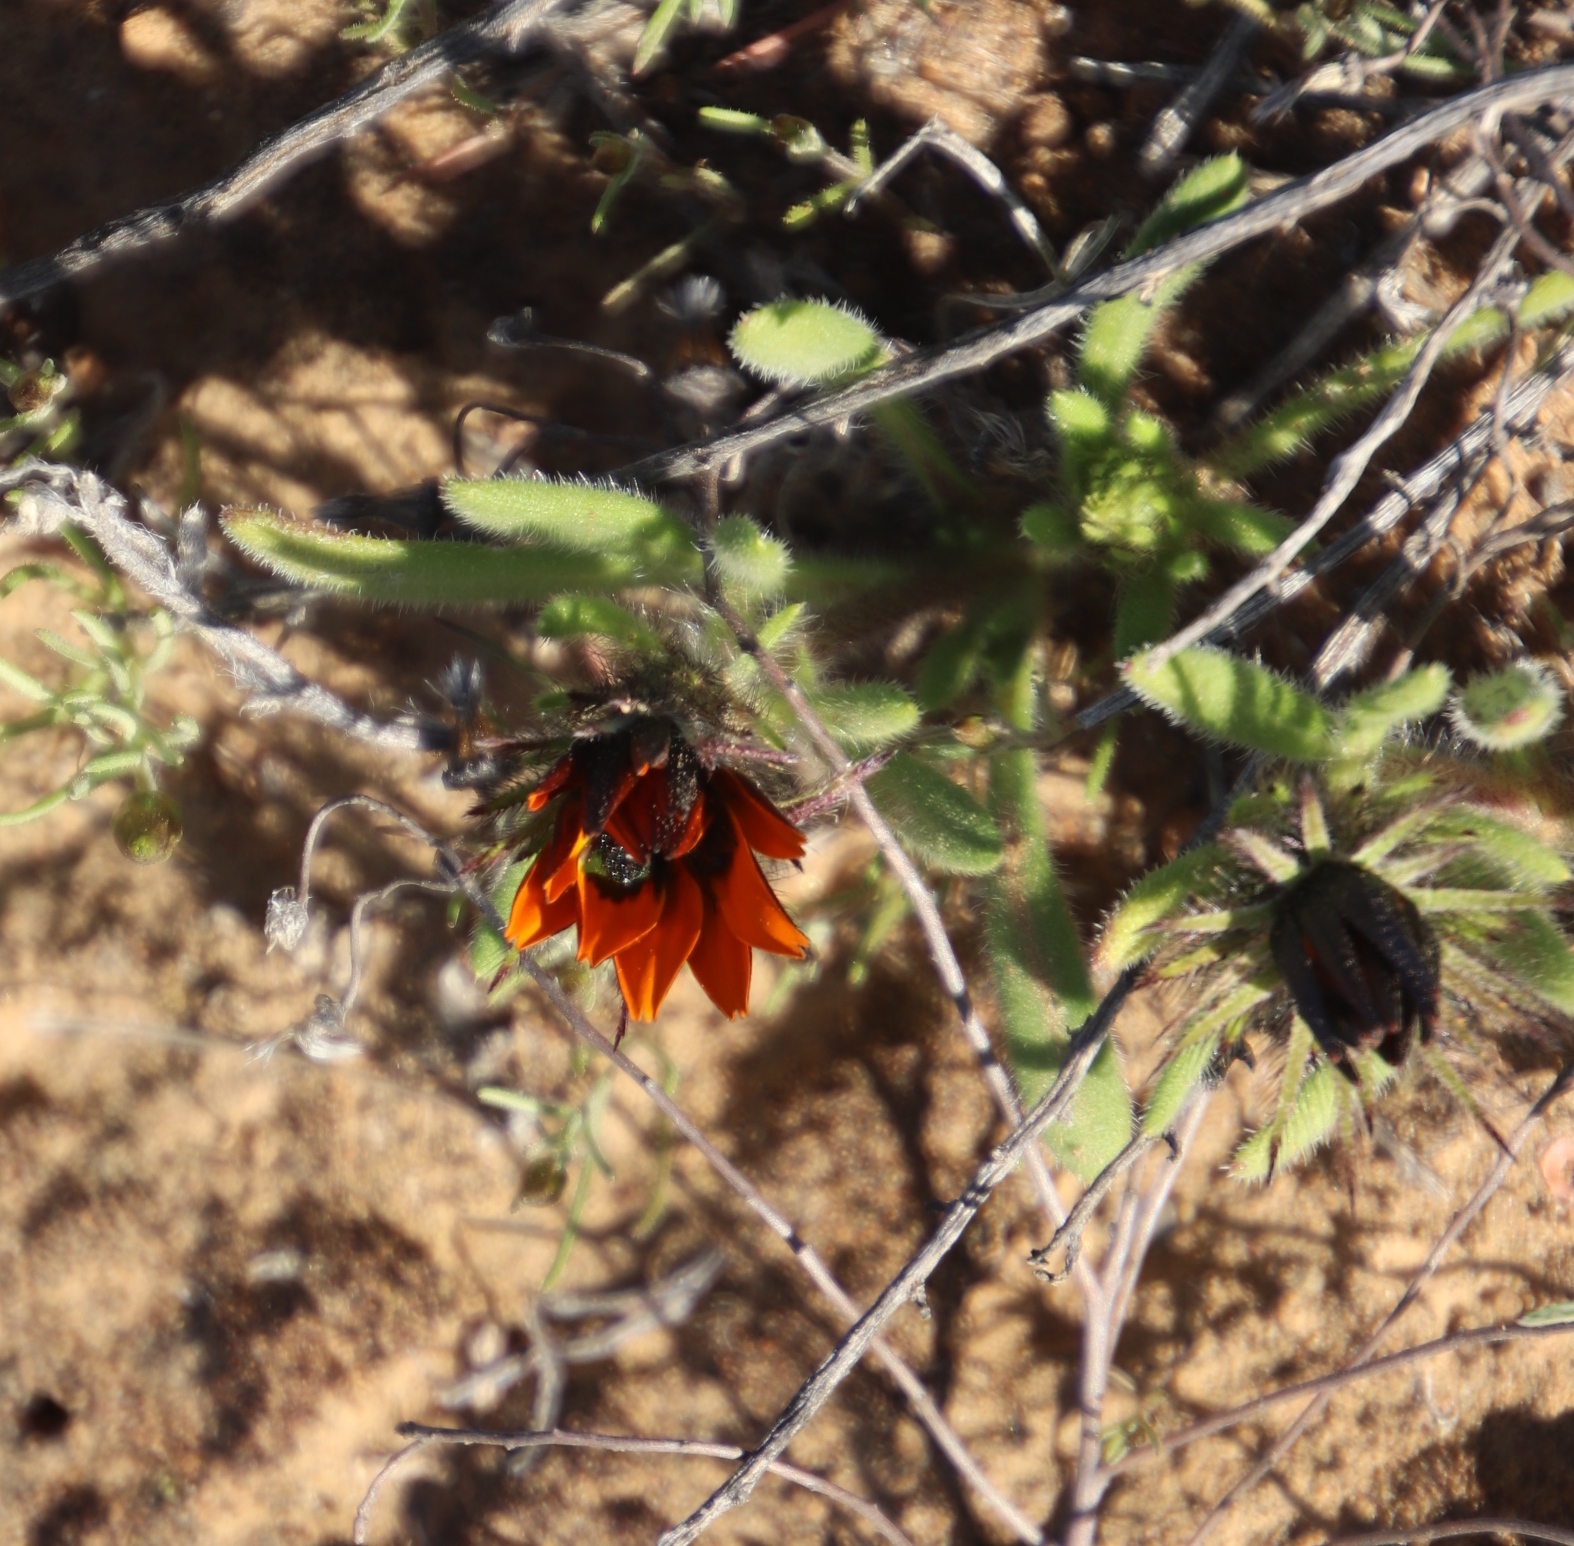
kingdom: Plantae
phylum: Tracheophyta
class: Magnoliopsida
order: Asterales
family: Asteraceae
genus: Gorteria
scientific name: Gorteria diffusa
